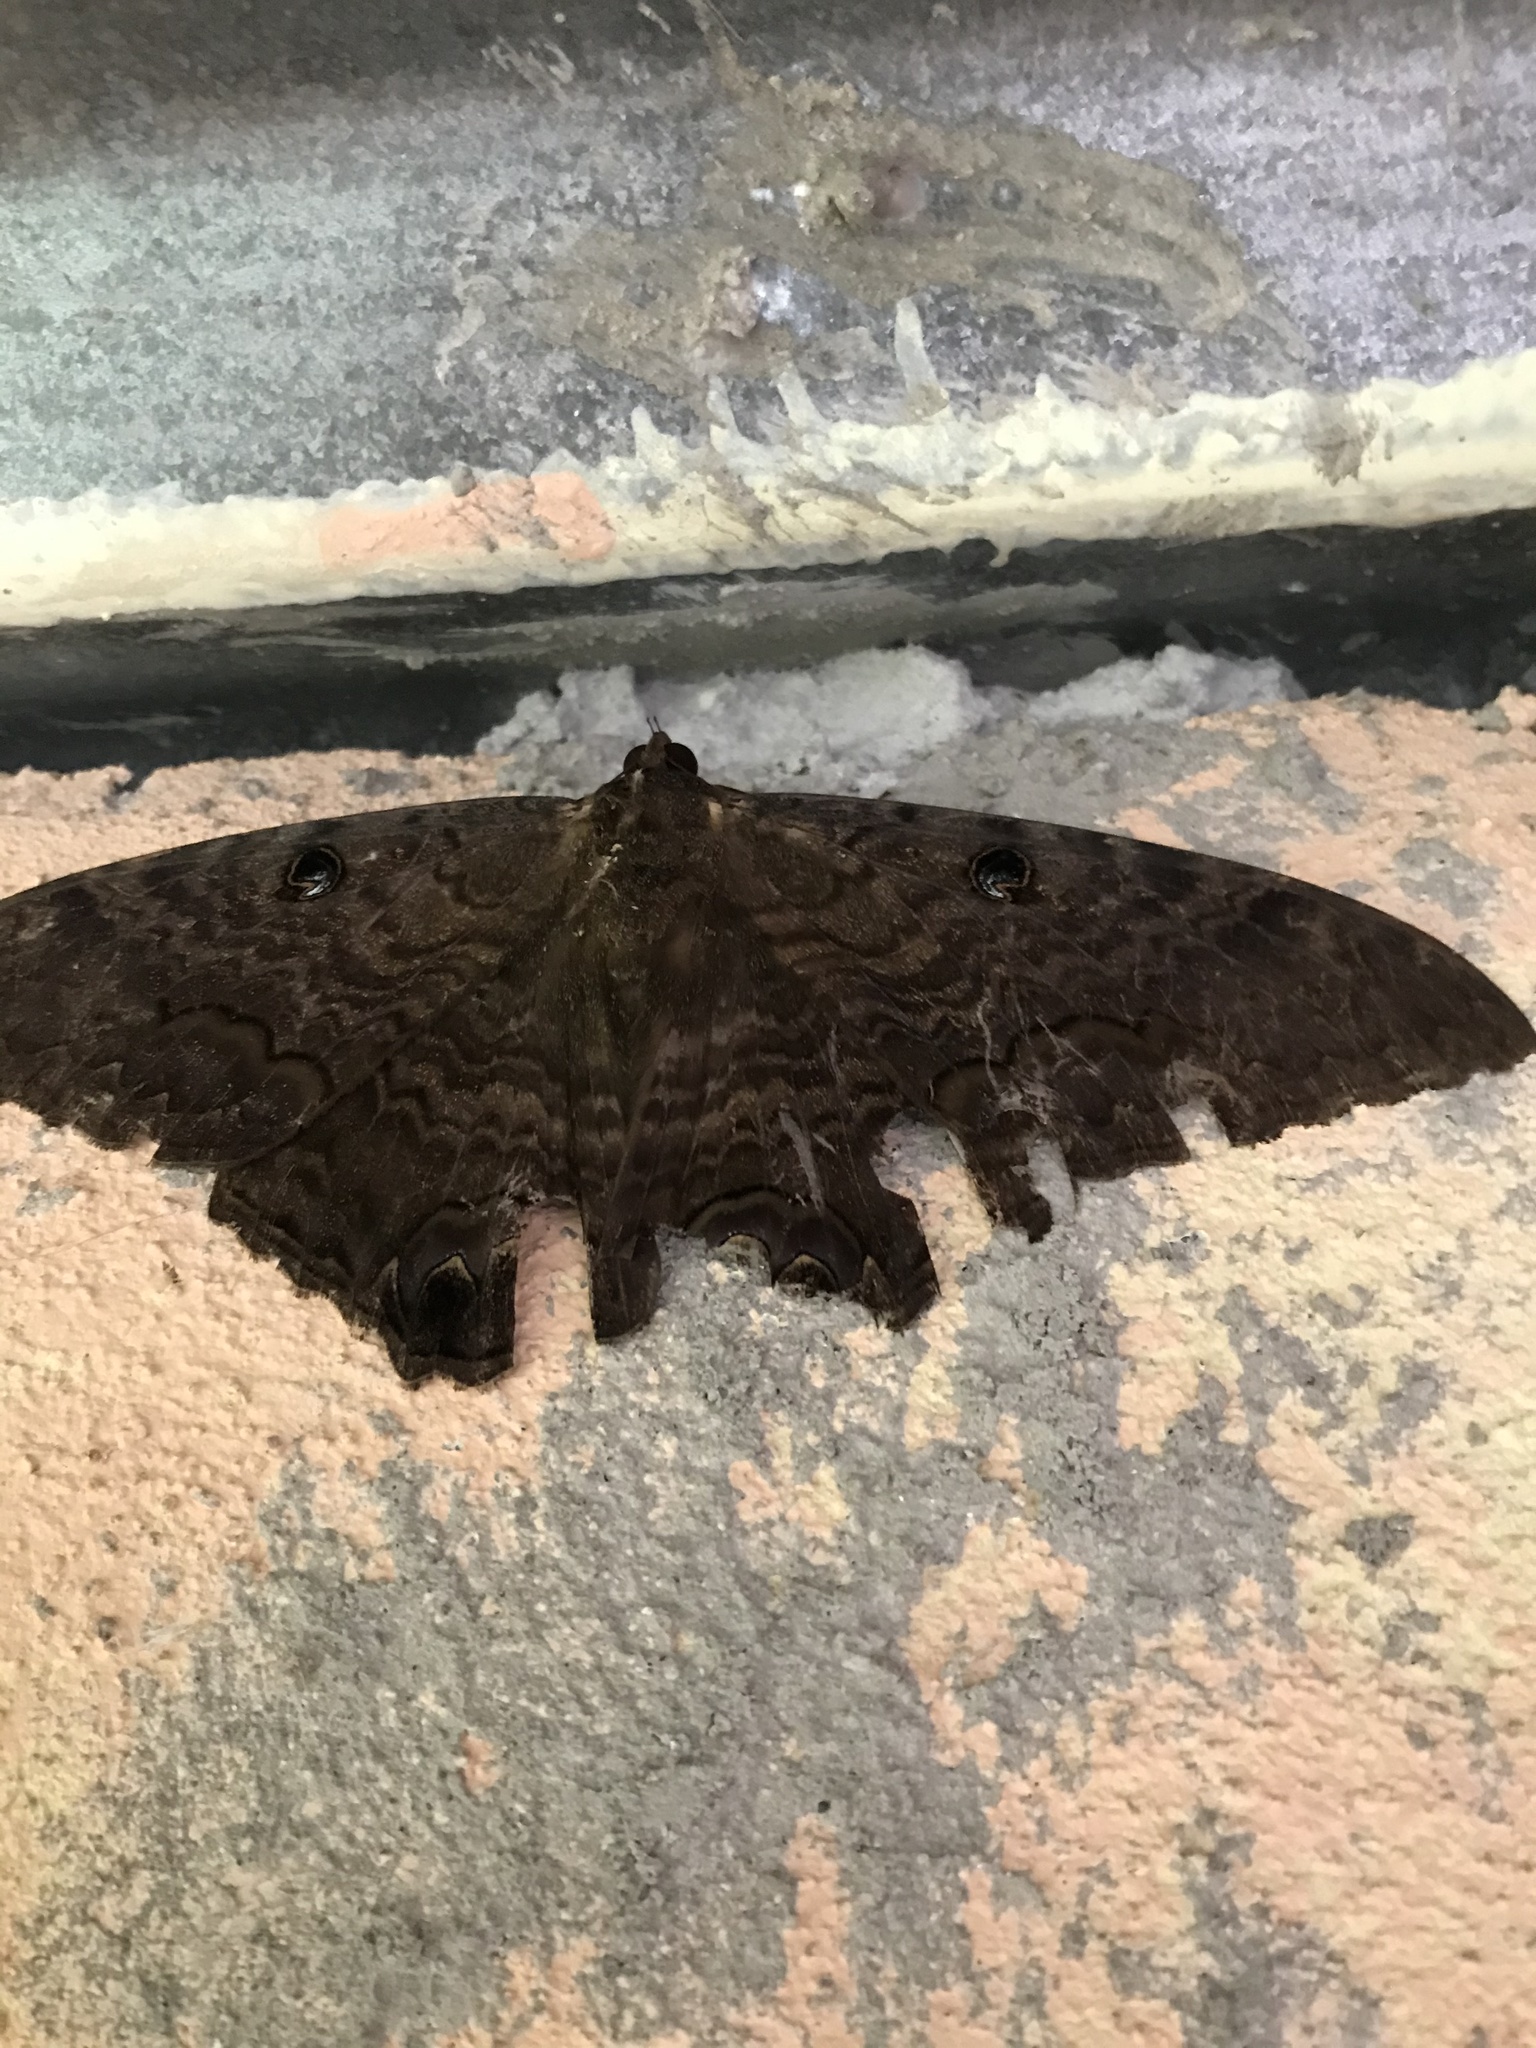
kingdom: Animalia
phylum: Arthropoda
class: Insecta
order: Lepidoptera
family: Erebidae
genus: Ascalapha
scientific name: Ascalapha odorata
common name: Black witch
